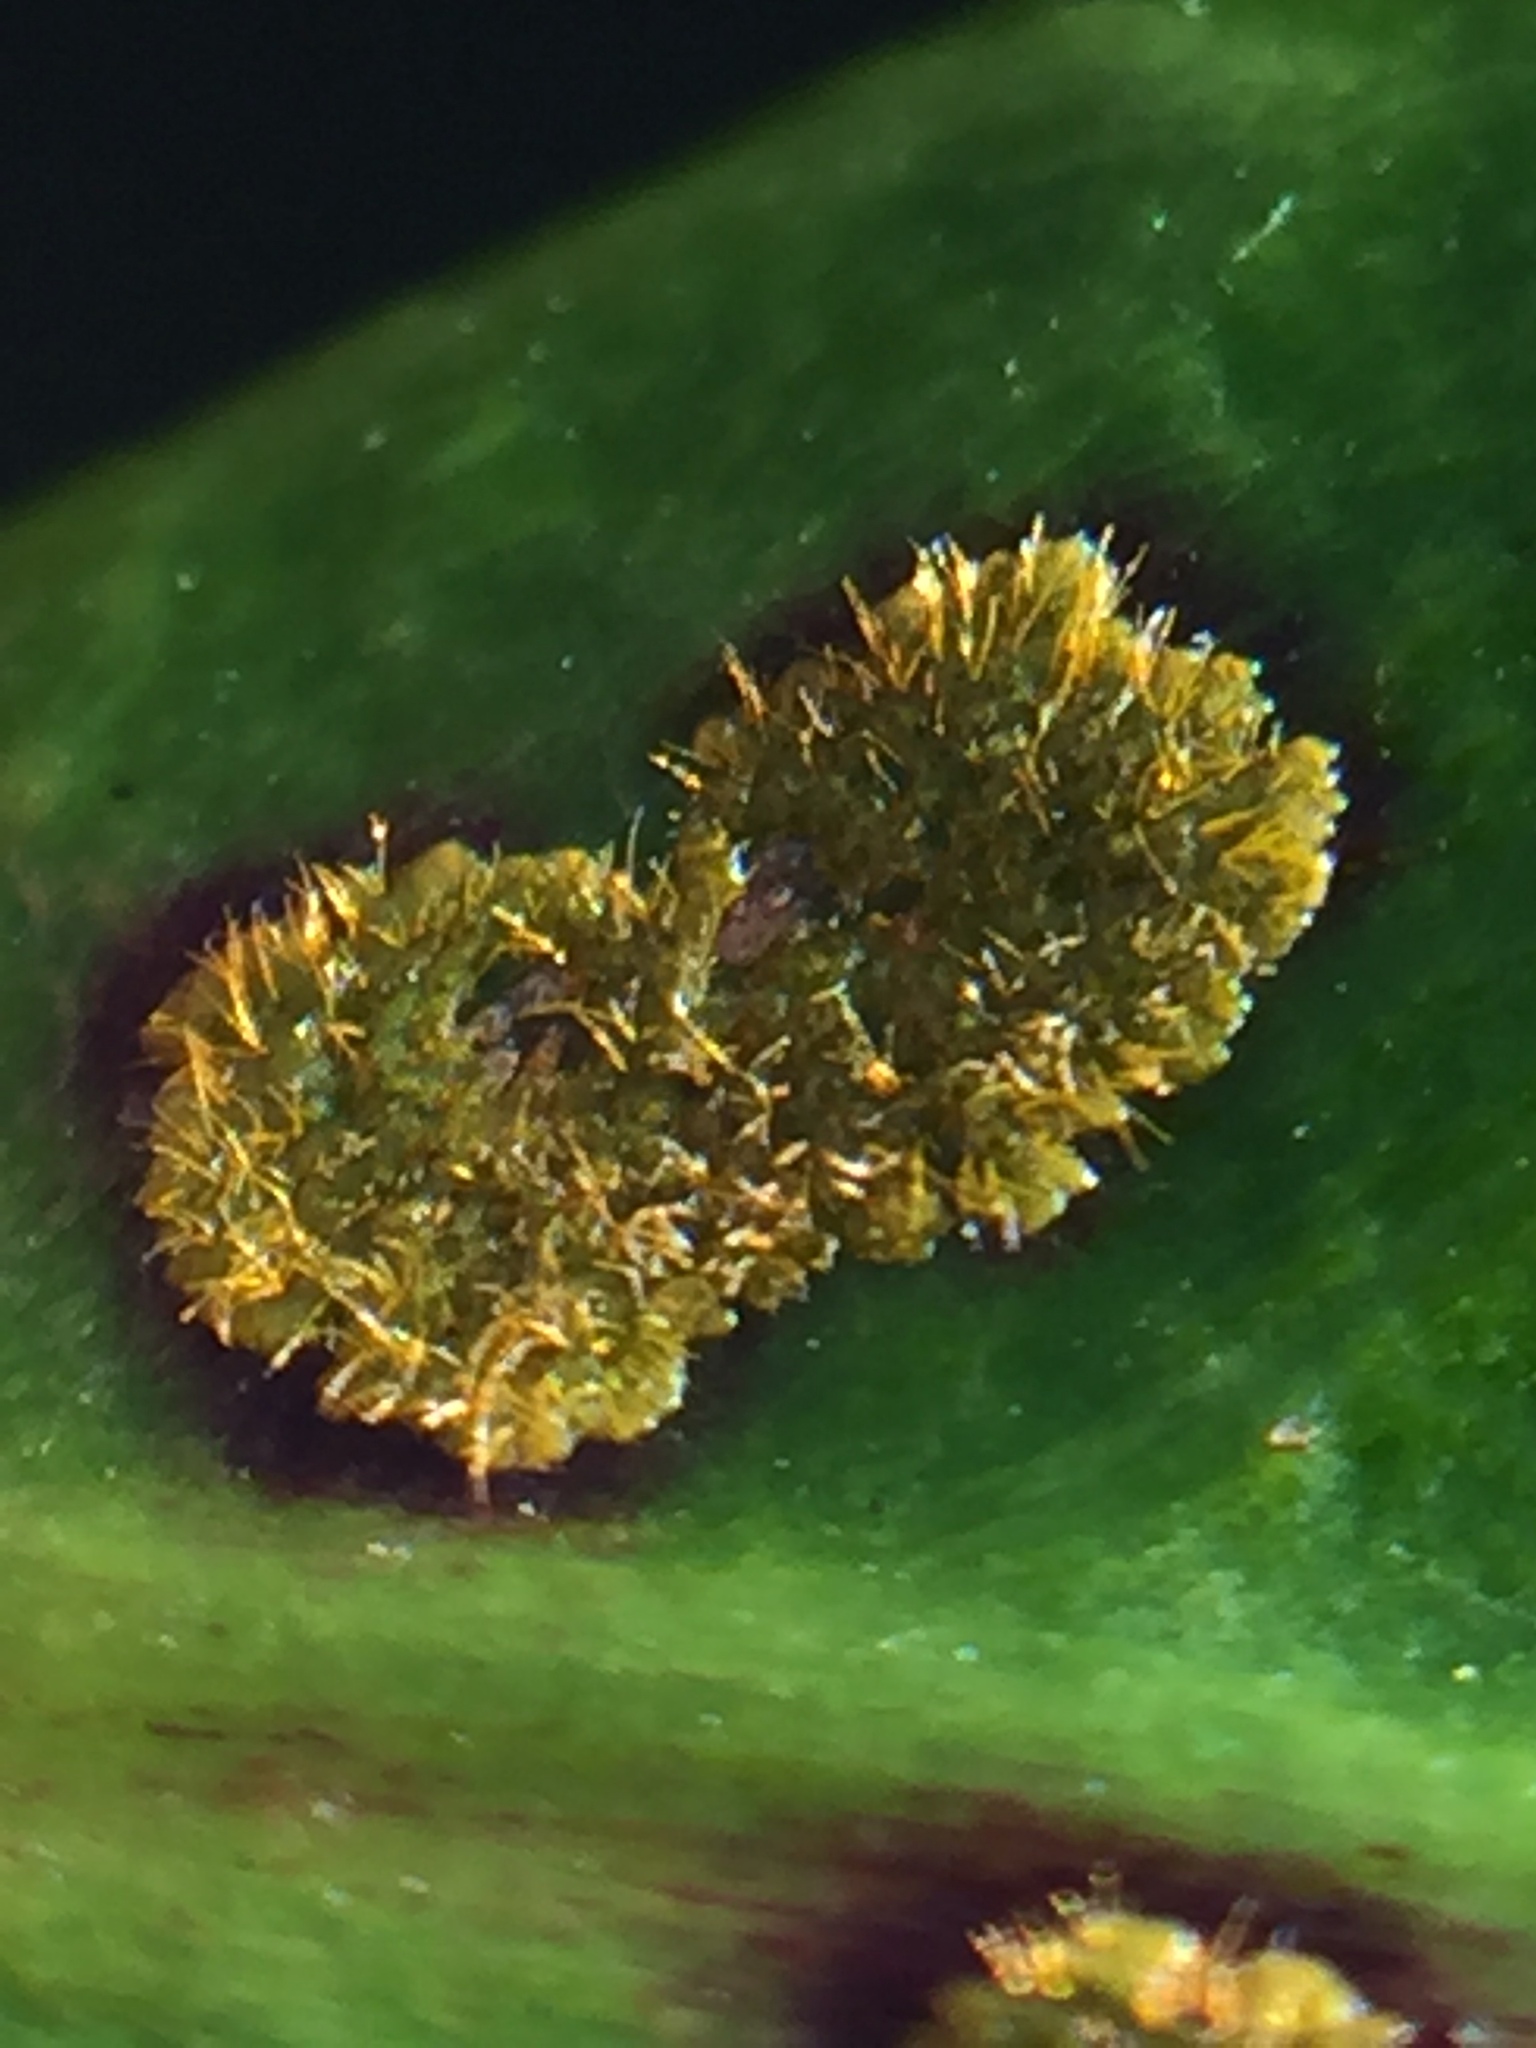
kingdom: Plantae
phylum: Chlorophyta
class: Ulvophyceae
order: Trentepohliales
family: Trentepohliaceae
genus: Cephaleuros
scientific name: Cephaleuros virescens
